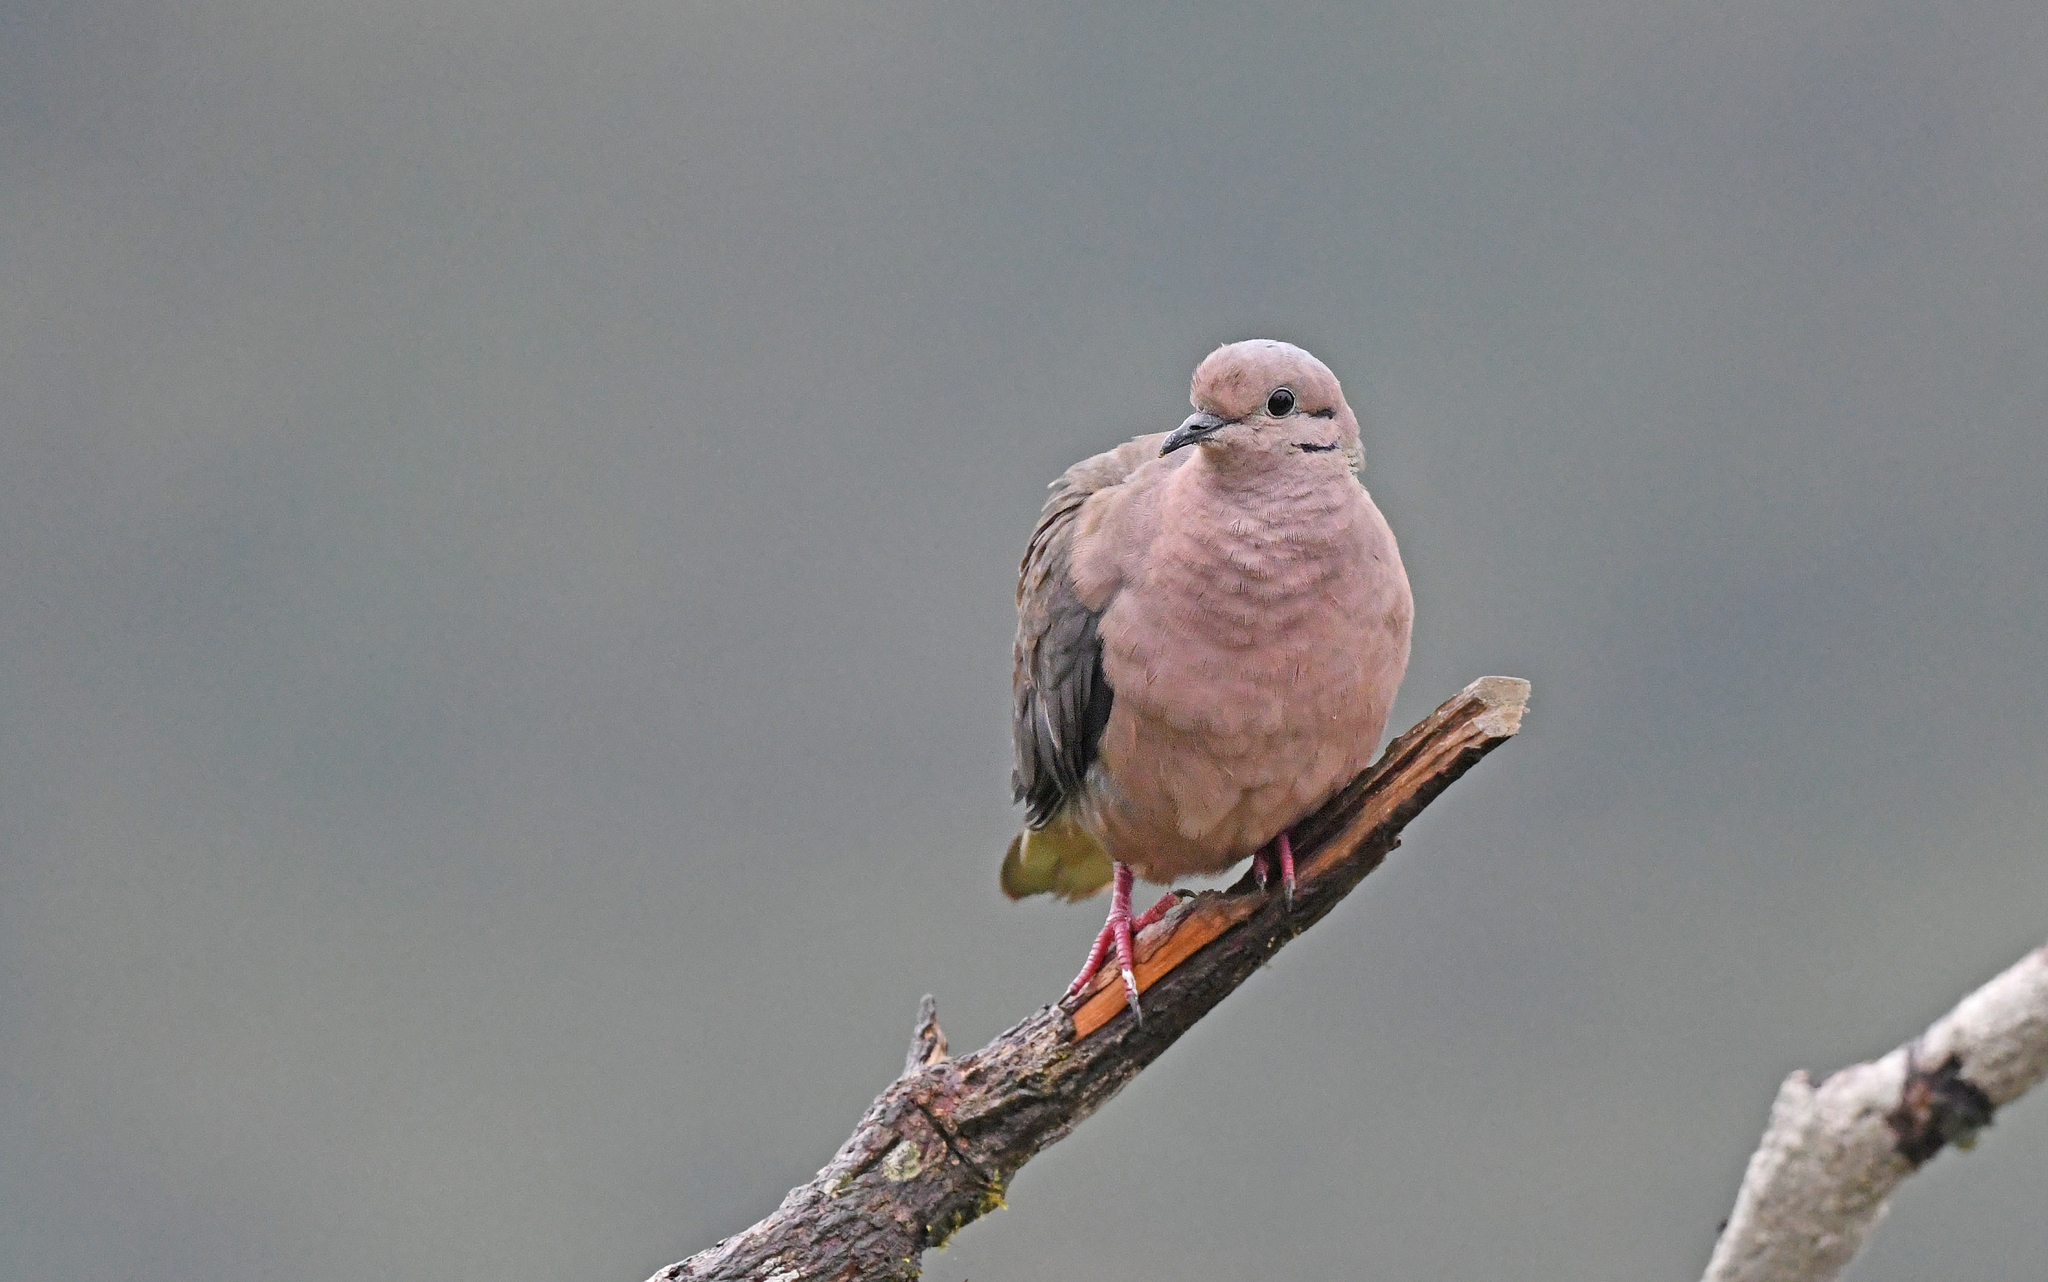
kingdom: Animalia
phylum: Chordata
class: Aves
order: Columbiformes
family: Columbidae
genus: Zenaida
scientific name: Zenaida auriculata
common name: Eared dove
